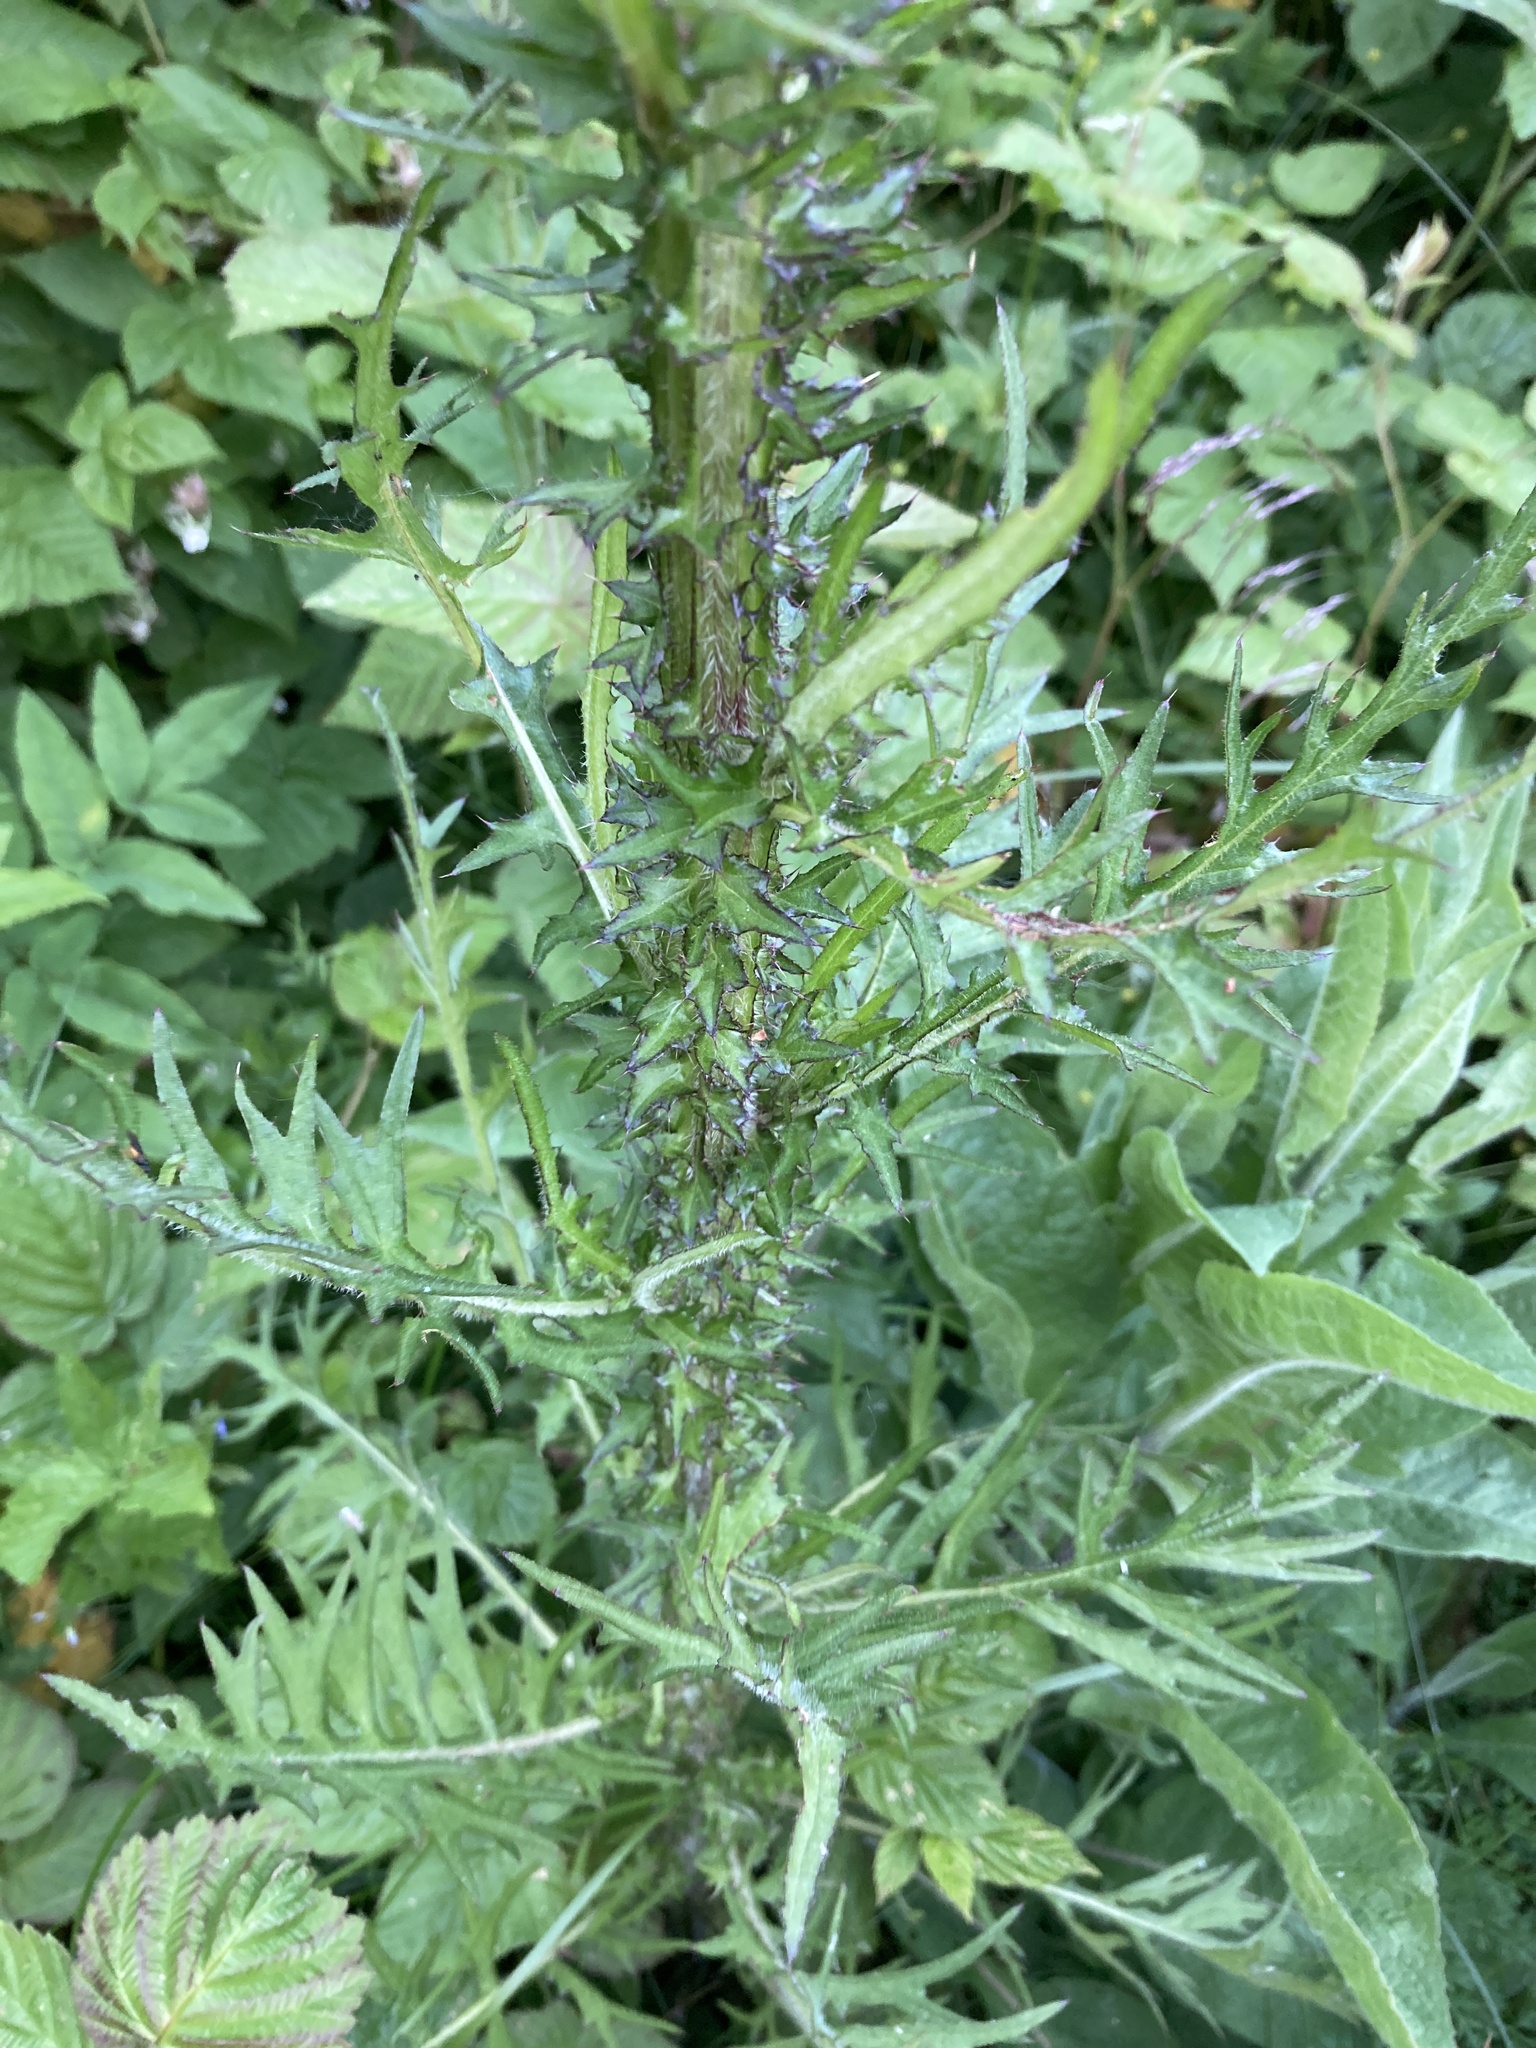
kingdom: Plantae
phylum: Tracheophyta
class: Magnoliopsida
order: Asterales
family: Asteraceae
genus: Cirsium
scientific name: Cirsium palustre
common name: Marsh thistle
